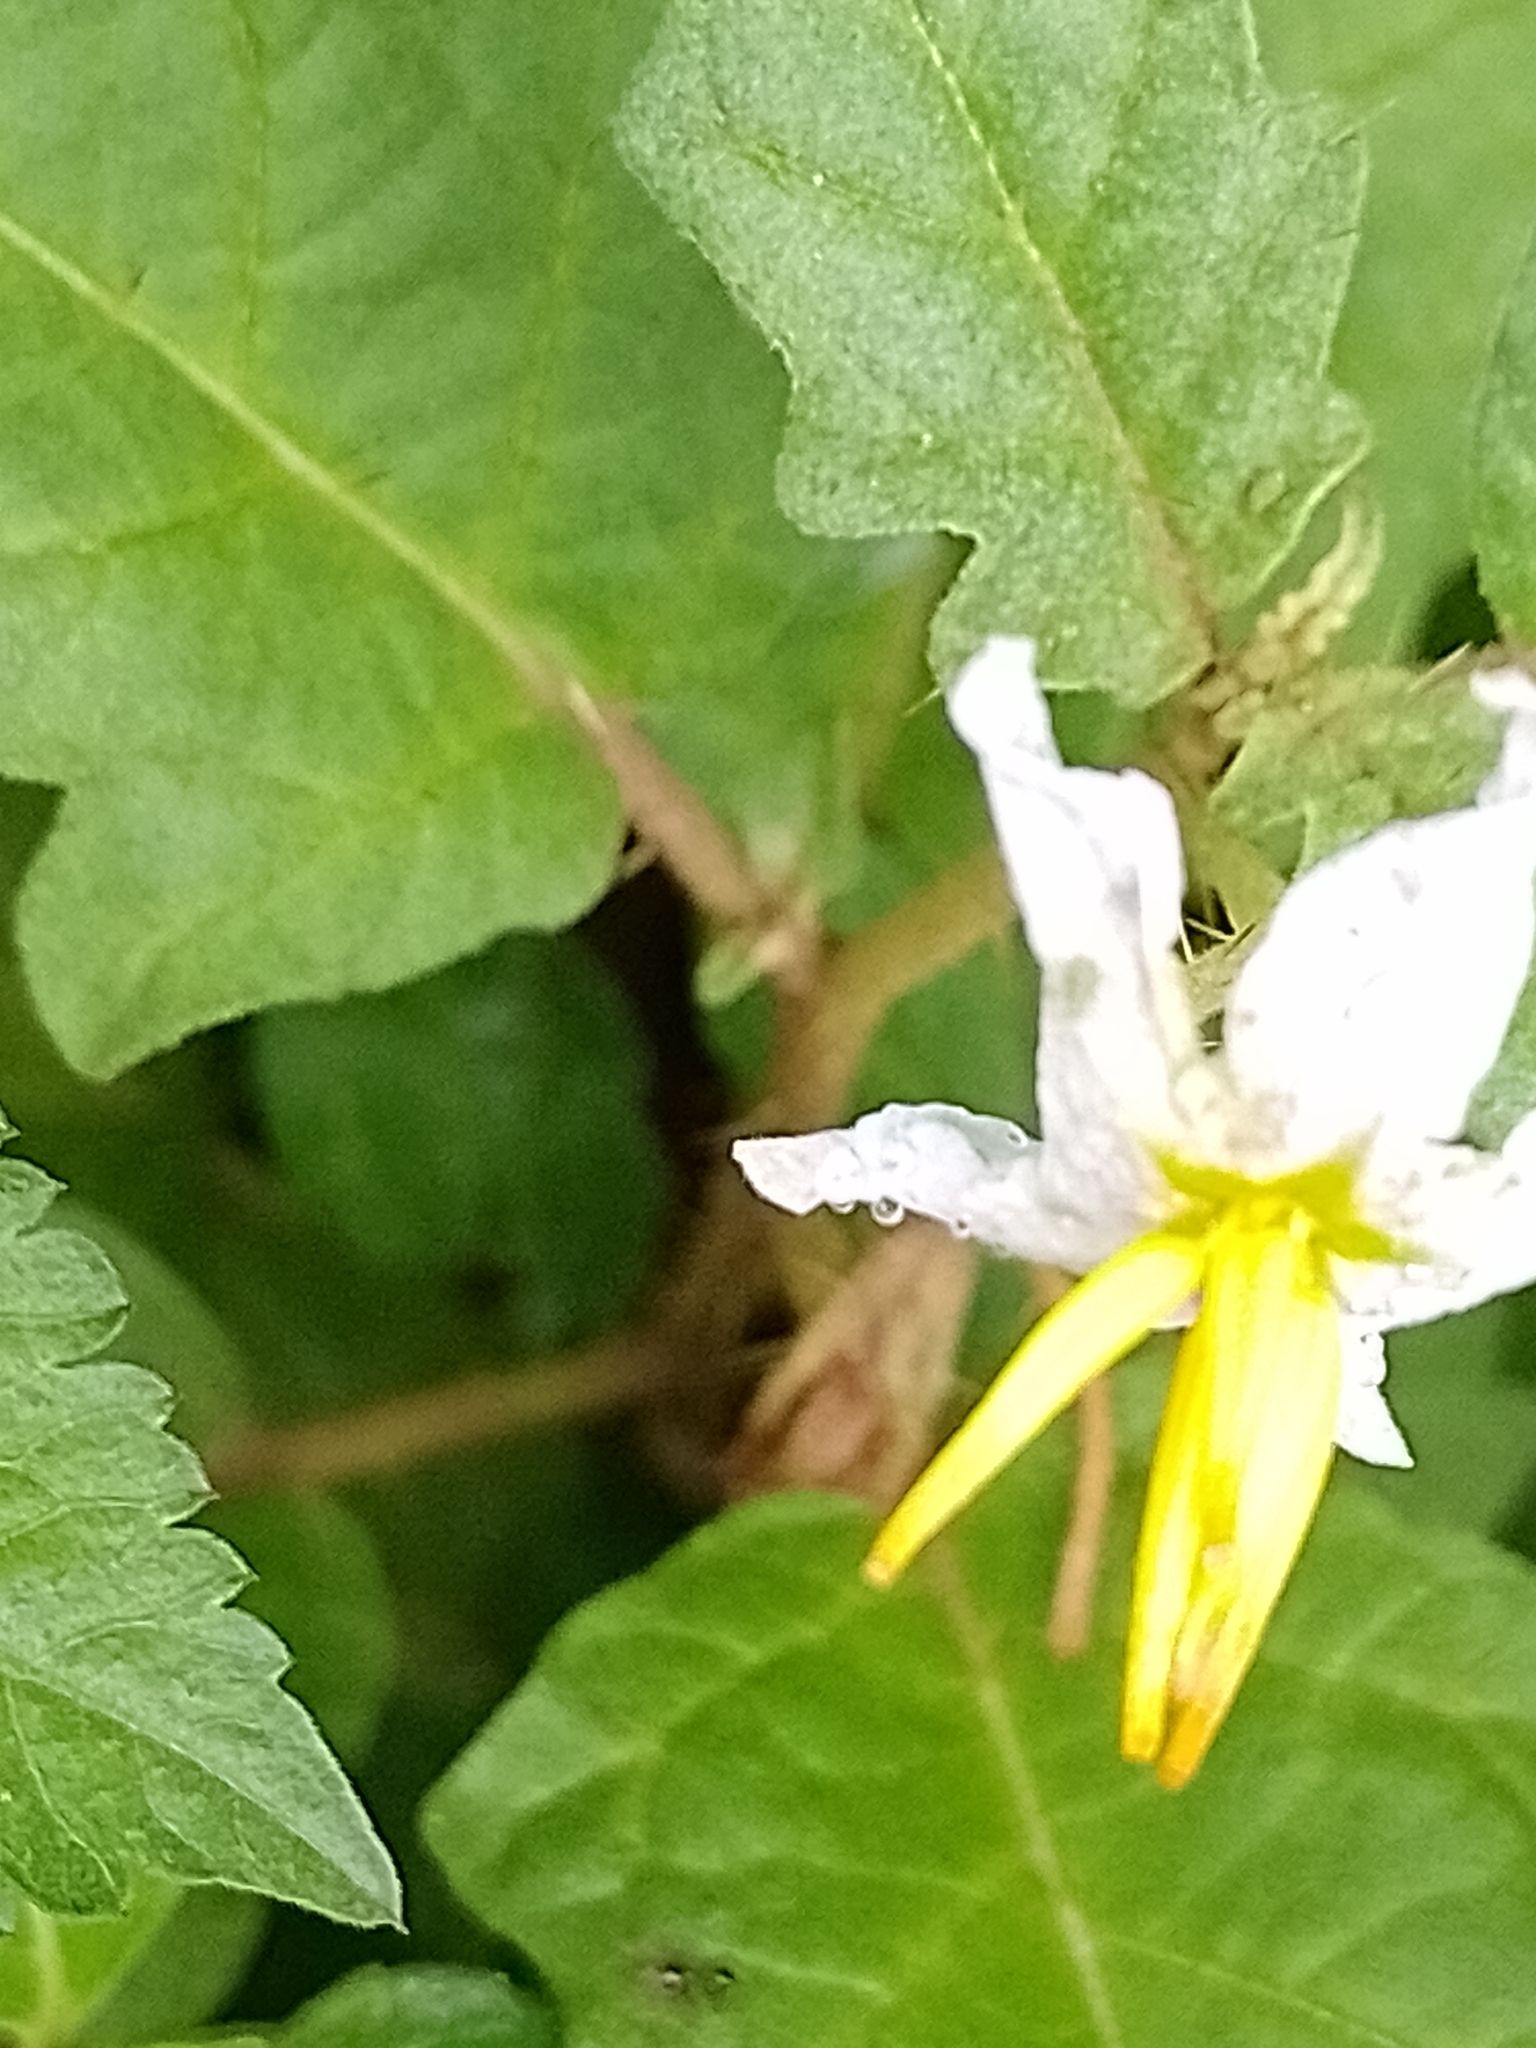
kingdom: Plantae
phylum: Tracheophyta
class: Magnoliopsida
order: Solanales
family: Solanaceae
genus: Solanum
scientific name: Solanum juvenale
